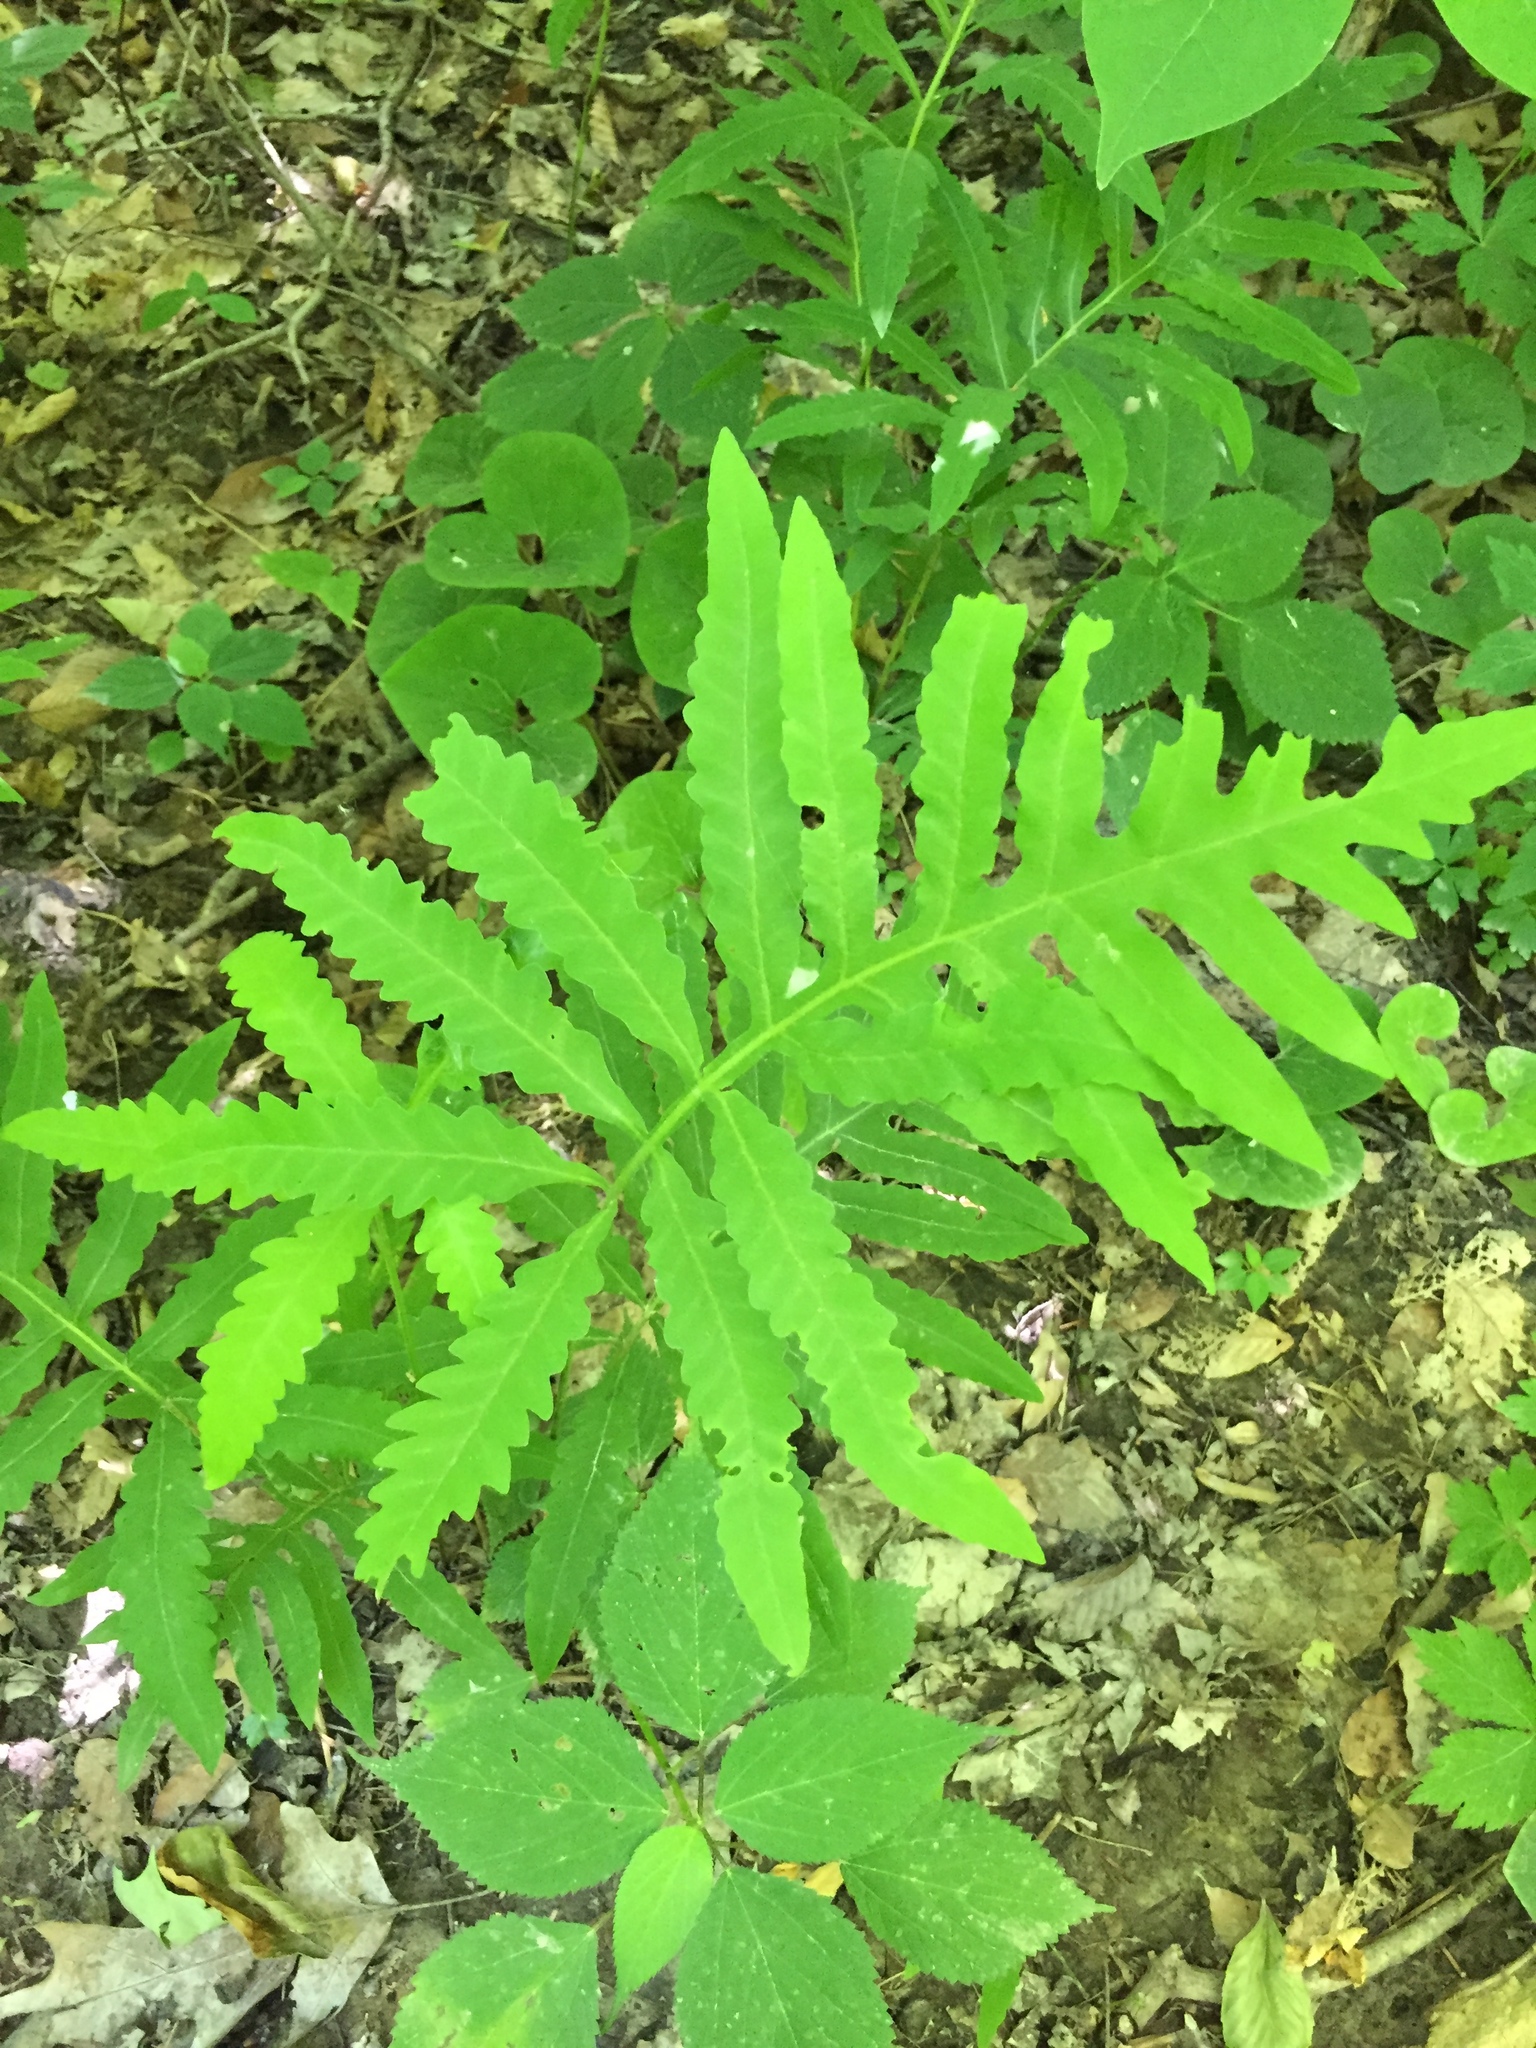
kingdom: Plantae
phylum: Tracheophyta
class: Polypodiopsida
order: Polypodiales
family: Onocleaceae
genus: Onoclea
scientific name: Onoclea sensibilis
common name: Sensitive fern
